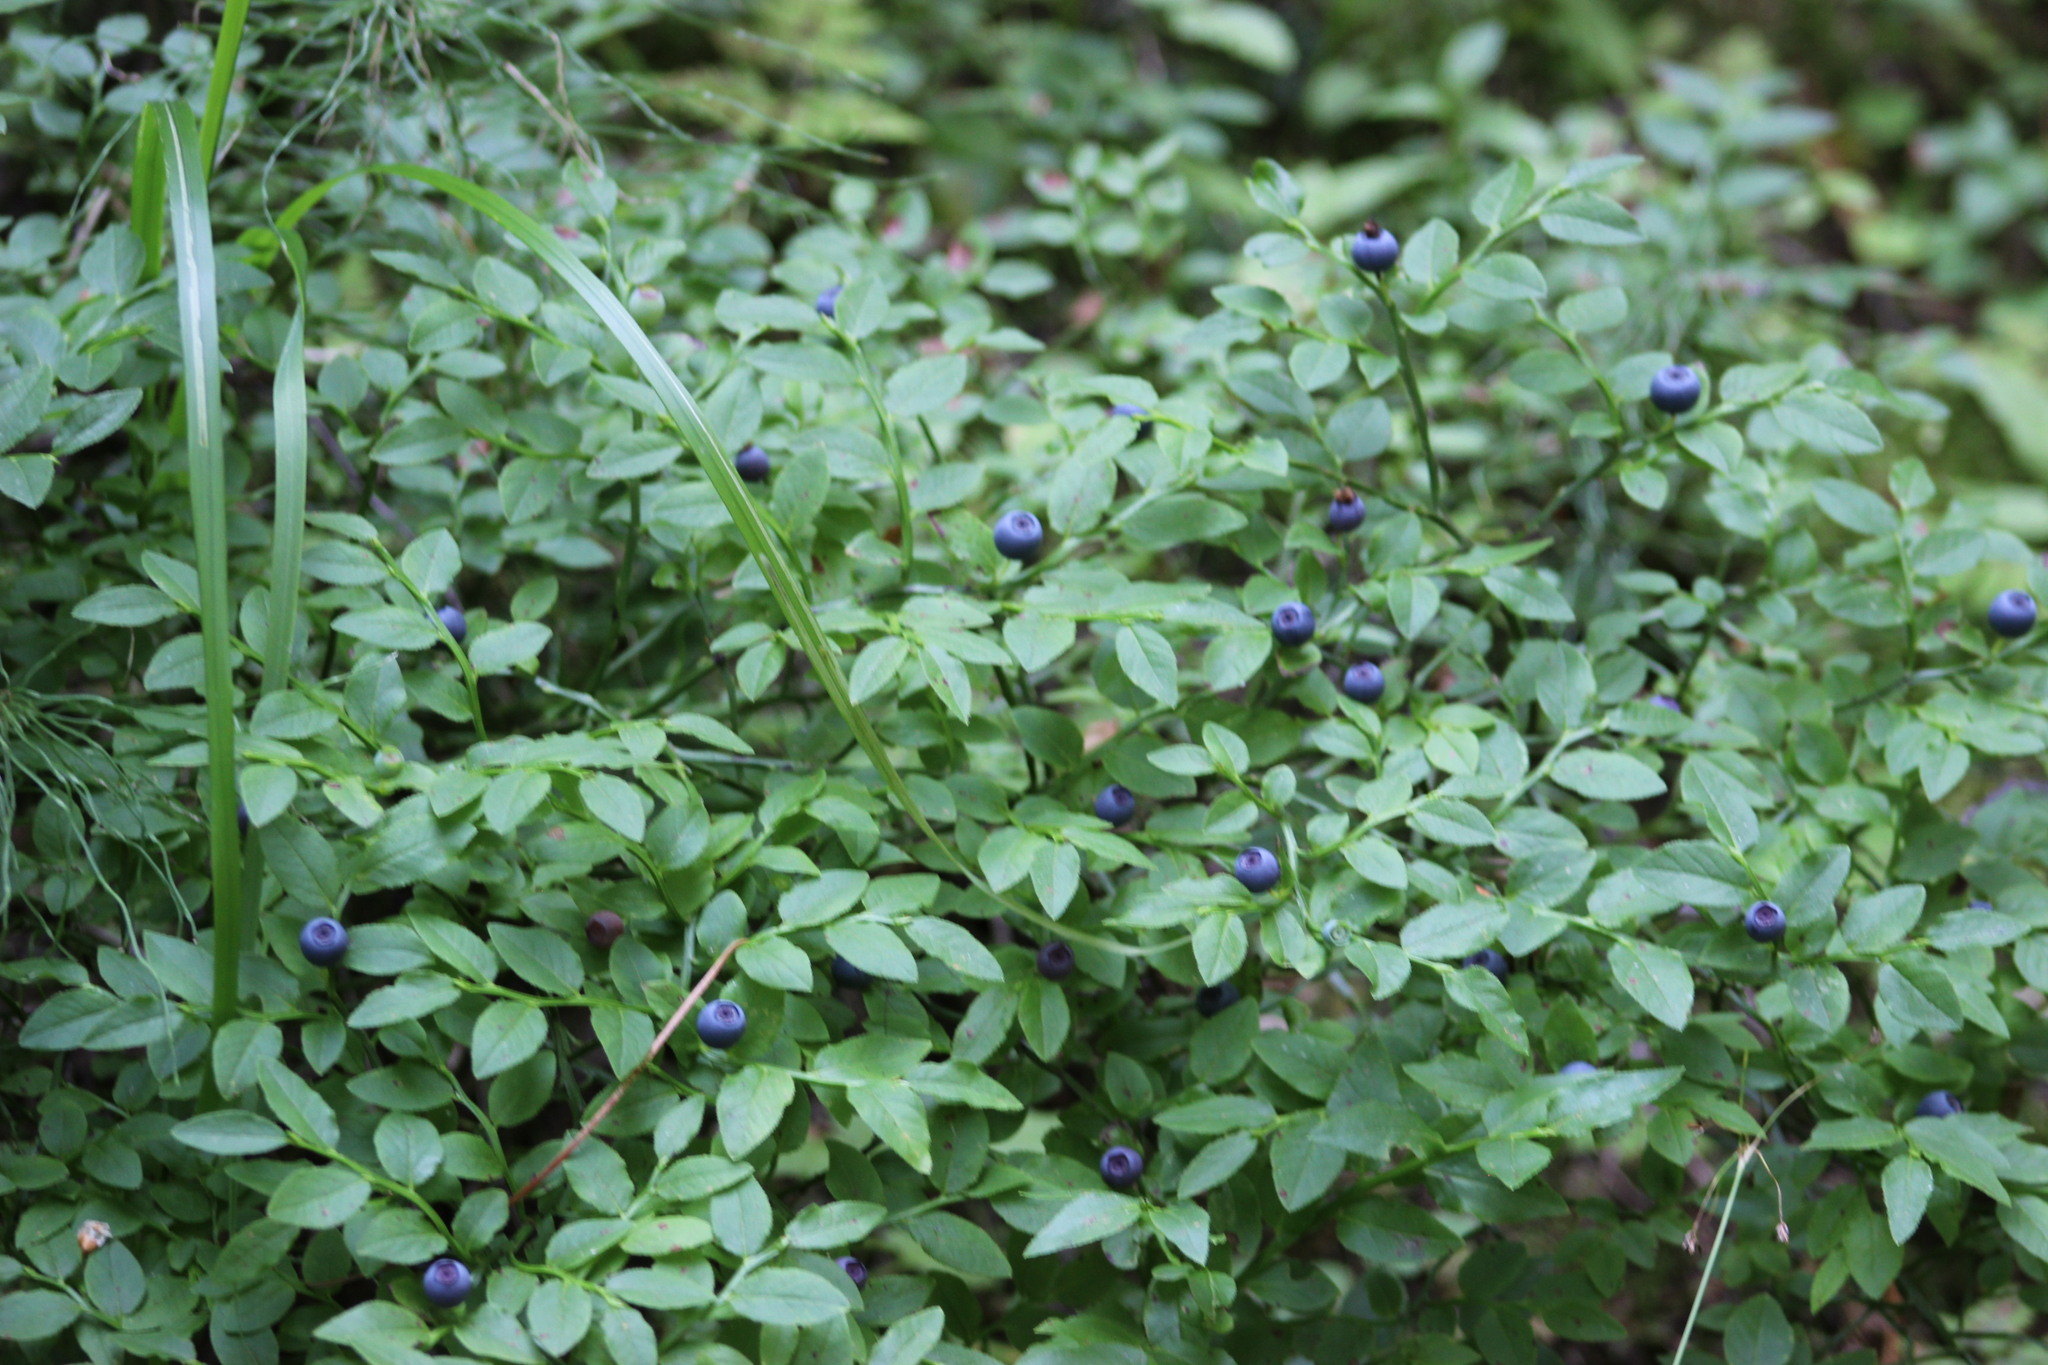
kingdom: Plantae
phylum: Tracheophyta
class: Magnoliopsida
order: Ericales
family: Ericaceae
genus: Vaccinium
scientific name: Vaccinium myrtillus
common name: Bilberry
